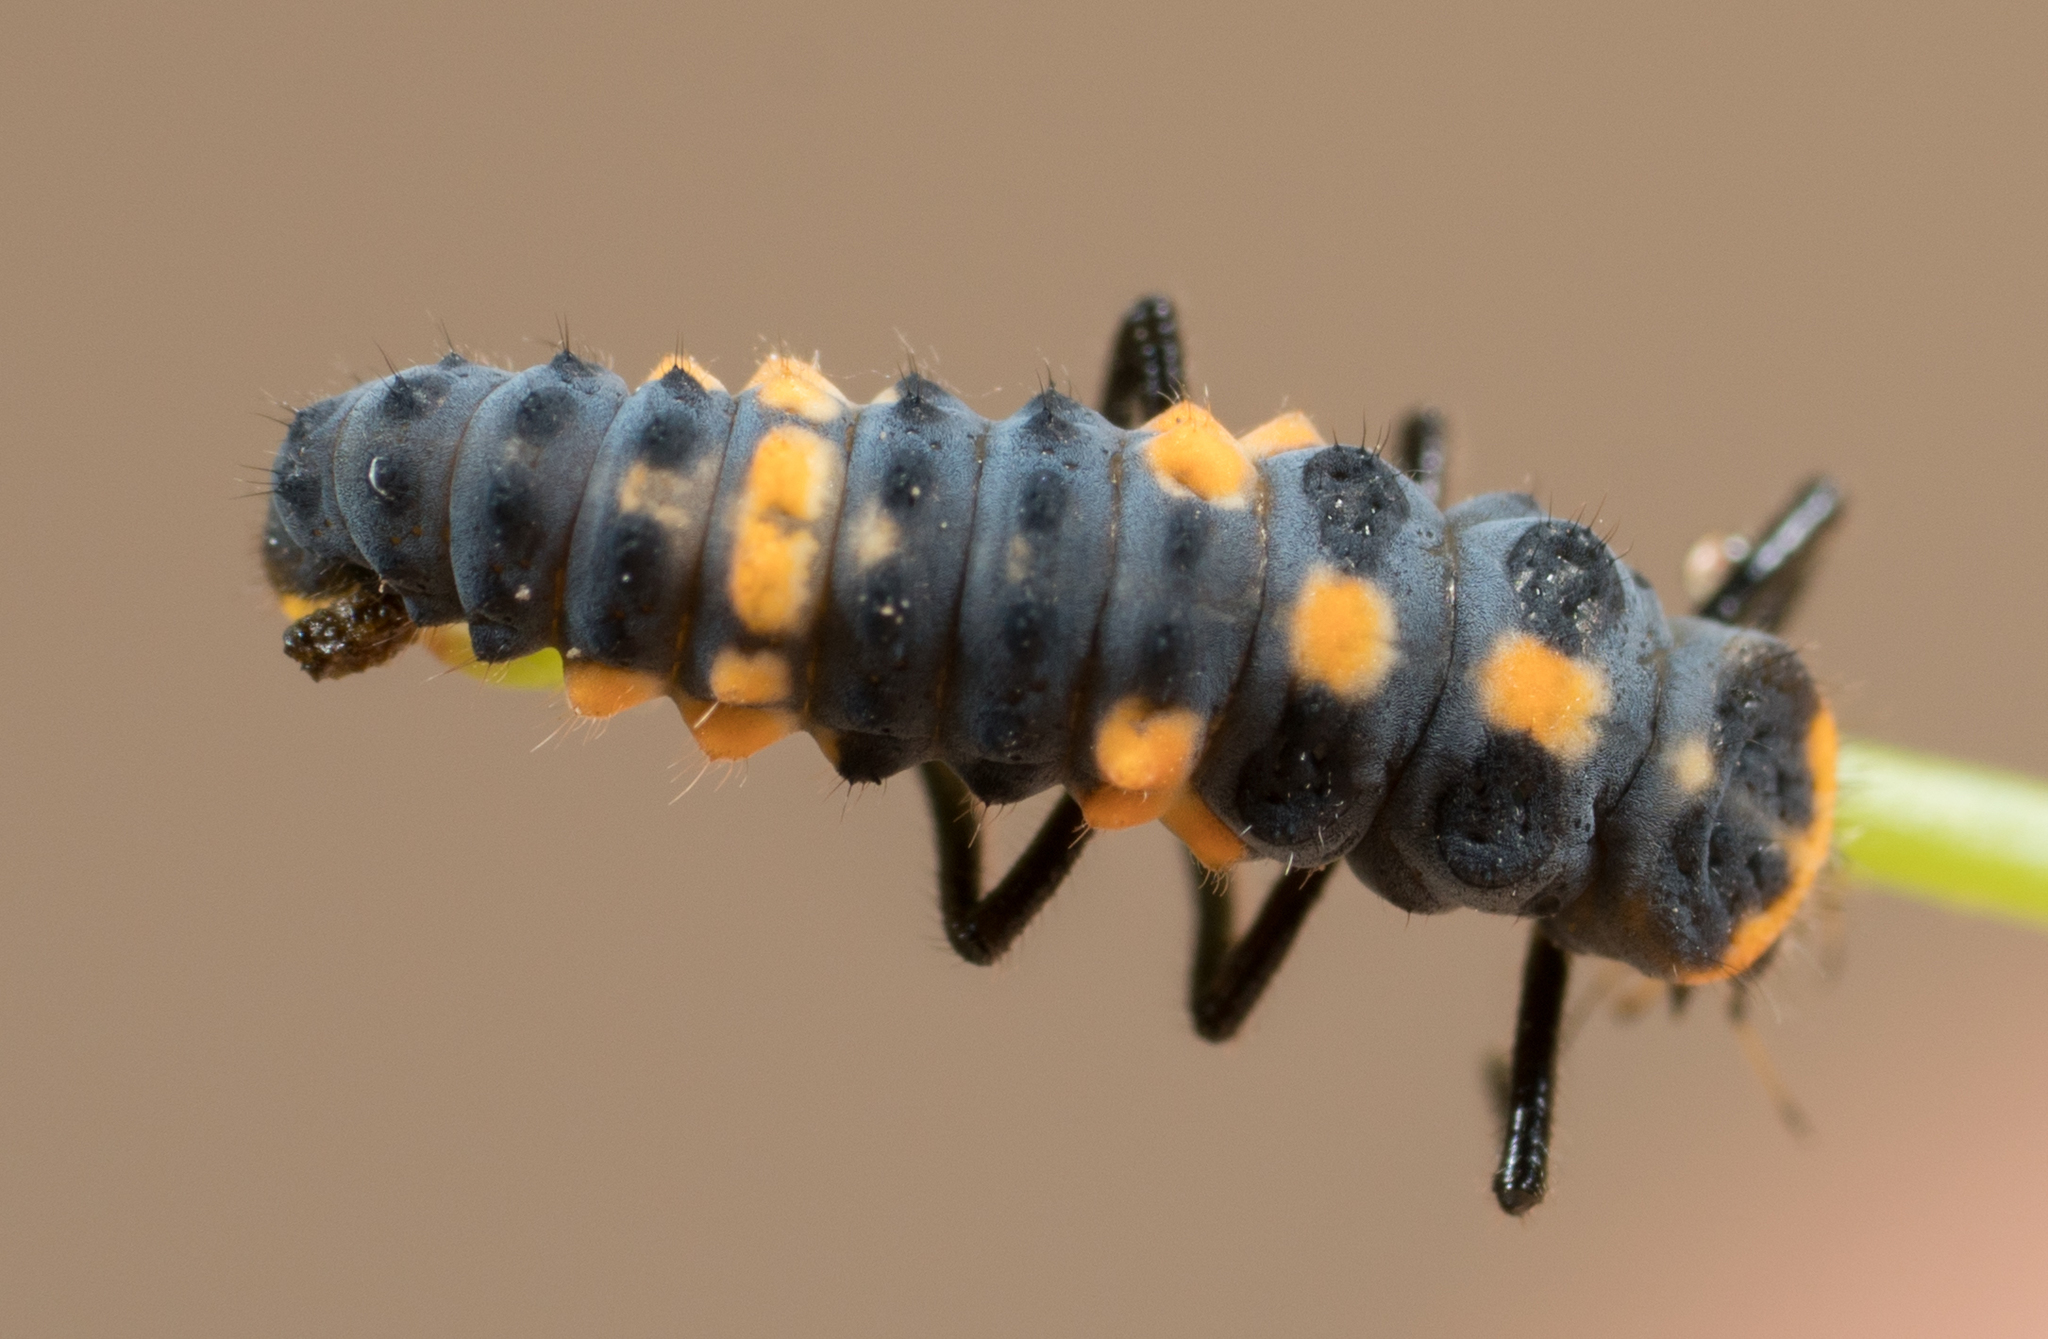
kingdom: Animalia
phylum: Arthropoda
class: Insecta
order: Coleoptera
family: Coccinellidae
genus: Cycloneda
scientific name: Cycloneda sanguinea
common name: Ladybird beetle
